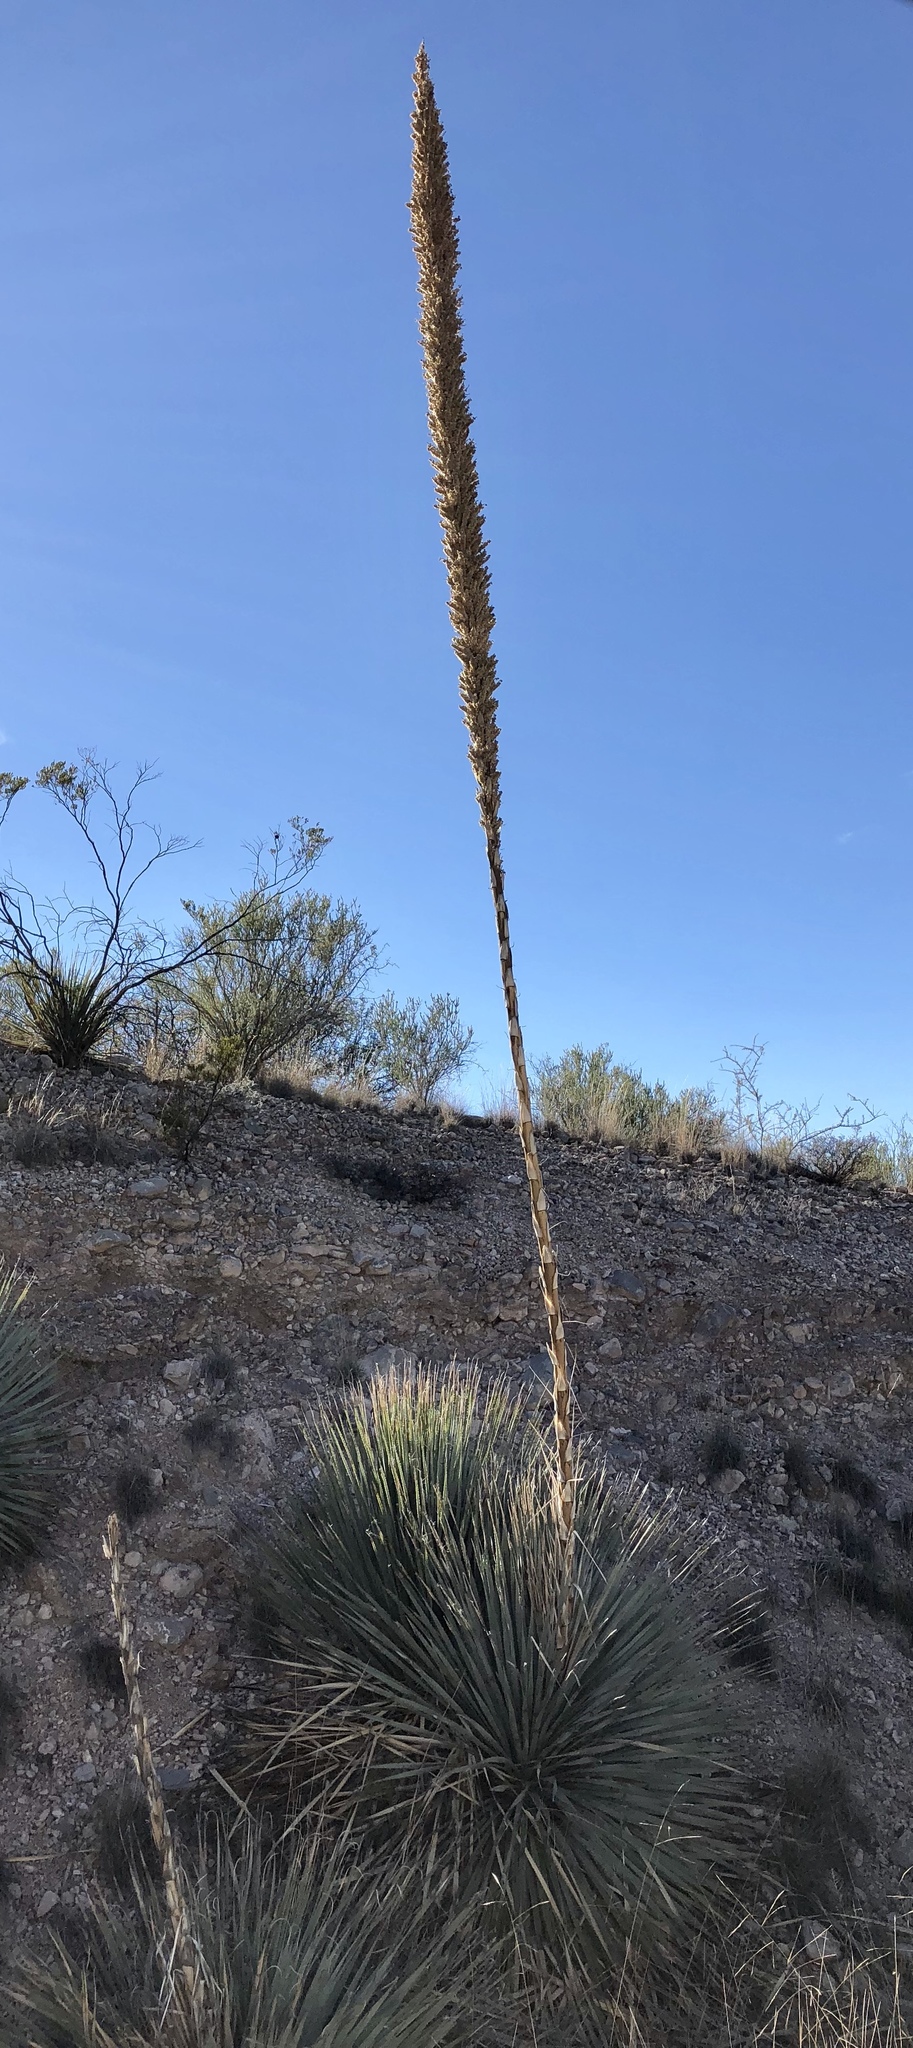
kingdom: Plantae
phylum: Tracheophyta
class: Liliopsida
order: Asparagales
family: Asparagaceae
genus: Dasylirion
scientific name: Dasylirion wheeleri
